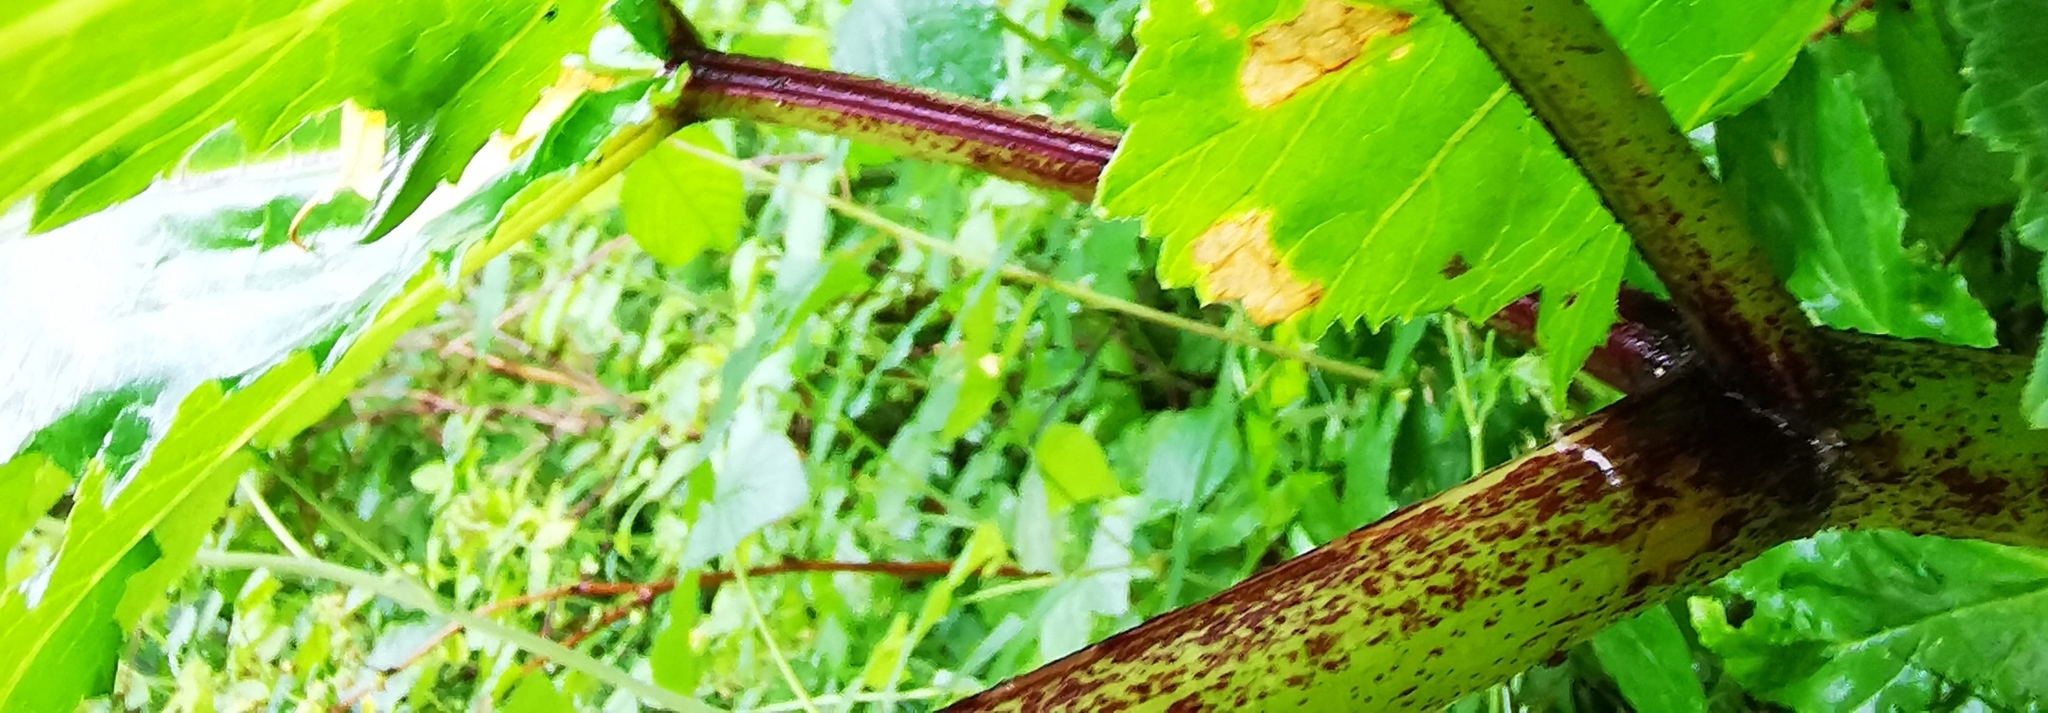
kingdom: Plantae
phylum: Tracheophyta
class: Magnoliopsida
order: Apiales
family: Apiaceae
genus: Heracleum
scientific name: Heracleum sosnowskyi
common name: Sosnowsky's hogweed
